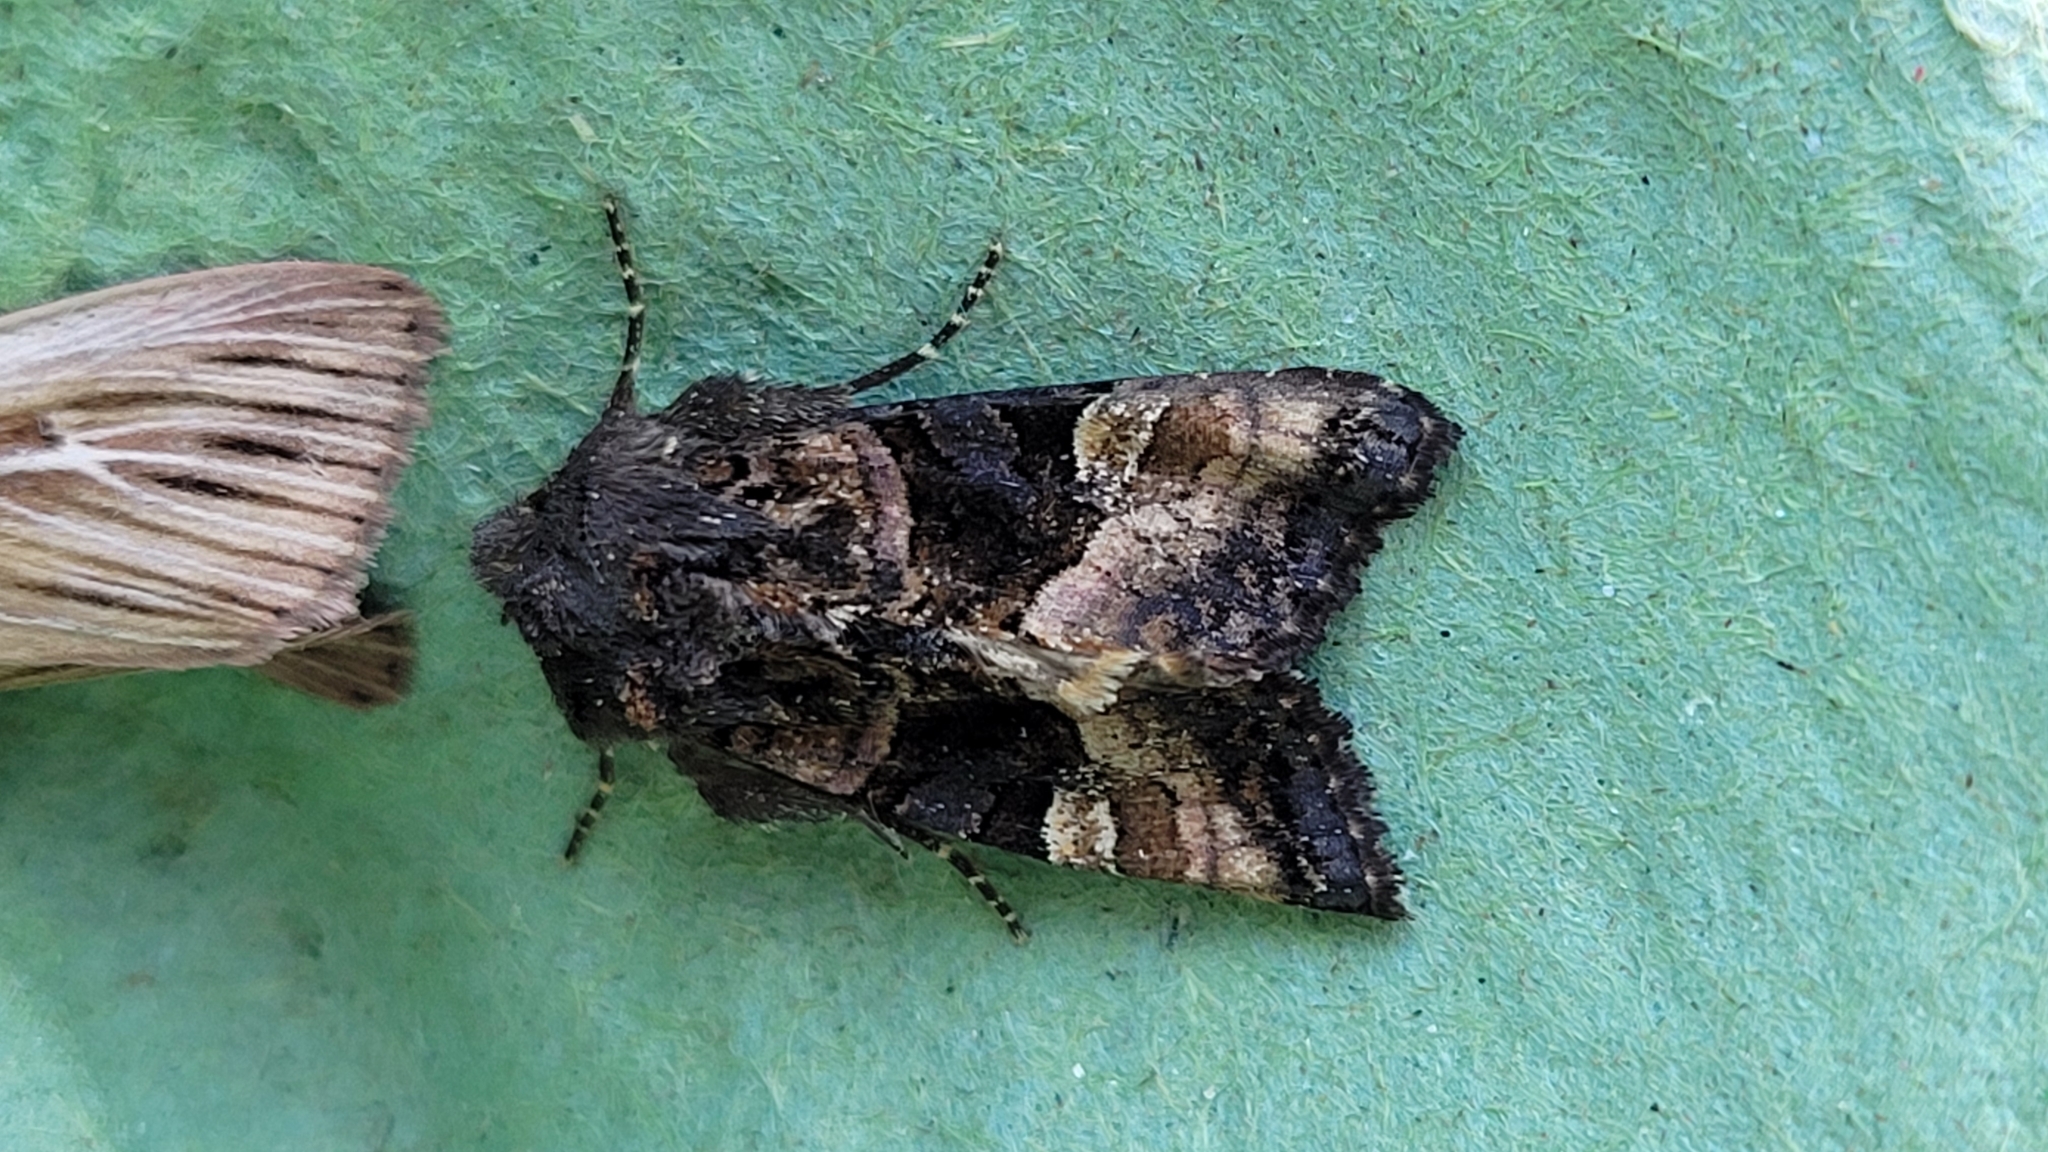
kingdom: Animalia
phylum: Arthropoda
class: Insecta
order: Lepidoptera
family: Noctuidae
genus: Euplexia
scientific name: Euplexia lucipara
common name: Small angle shades
